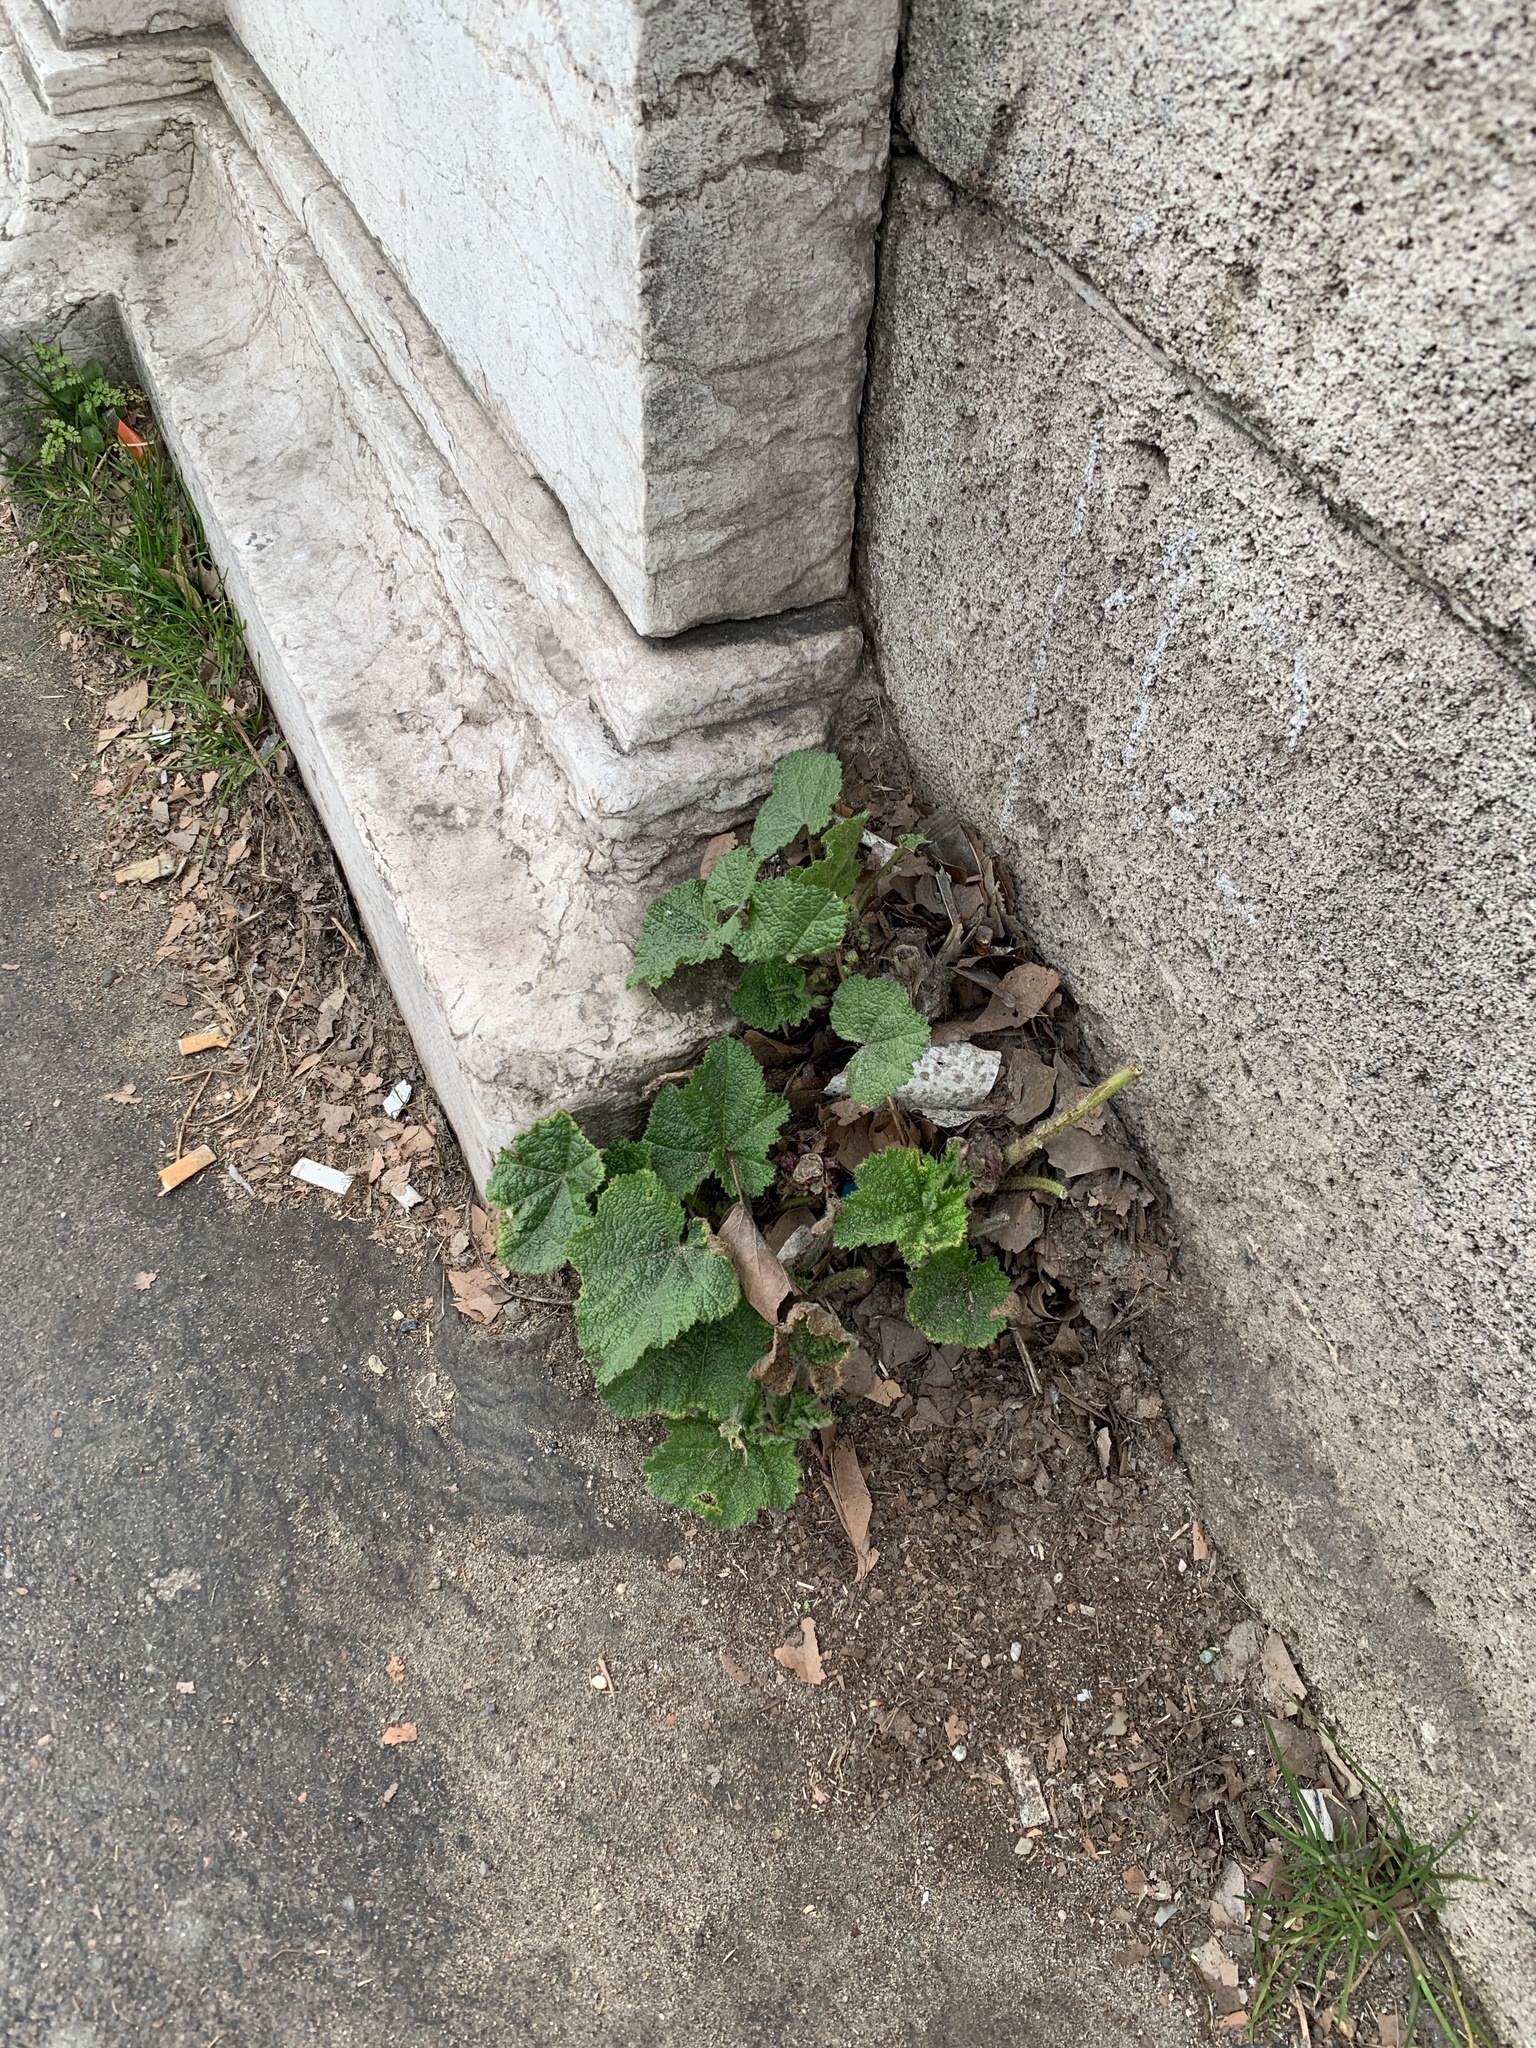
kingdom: Plantae
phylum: Tracheophyta
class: Magnoliopsida
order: Malvales
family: Malvaceae
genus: Alcea
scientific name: Alcea rosea
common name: Hollyhock
